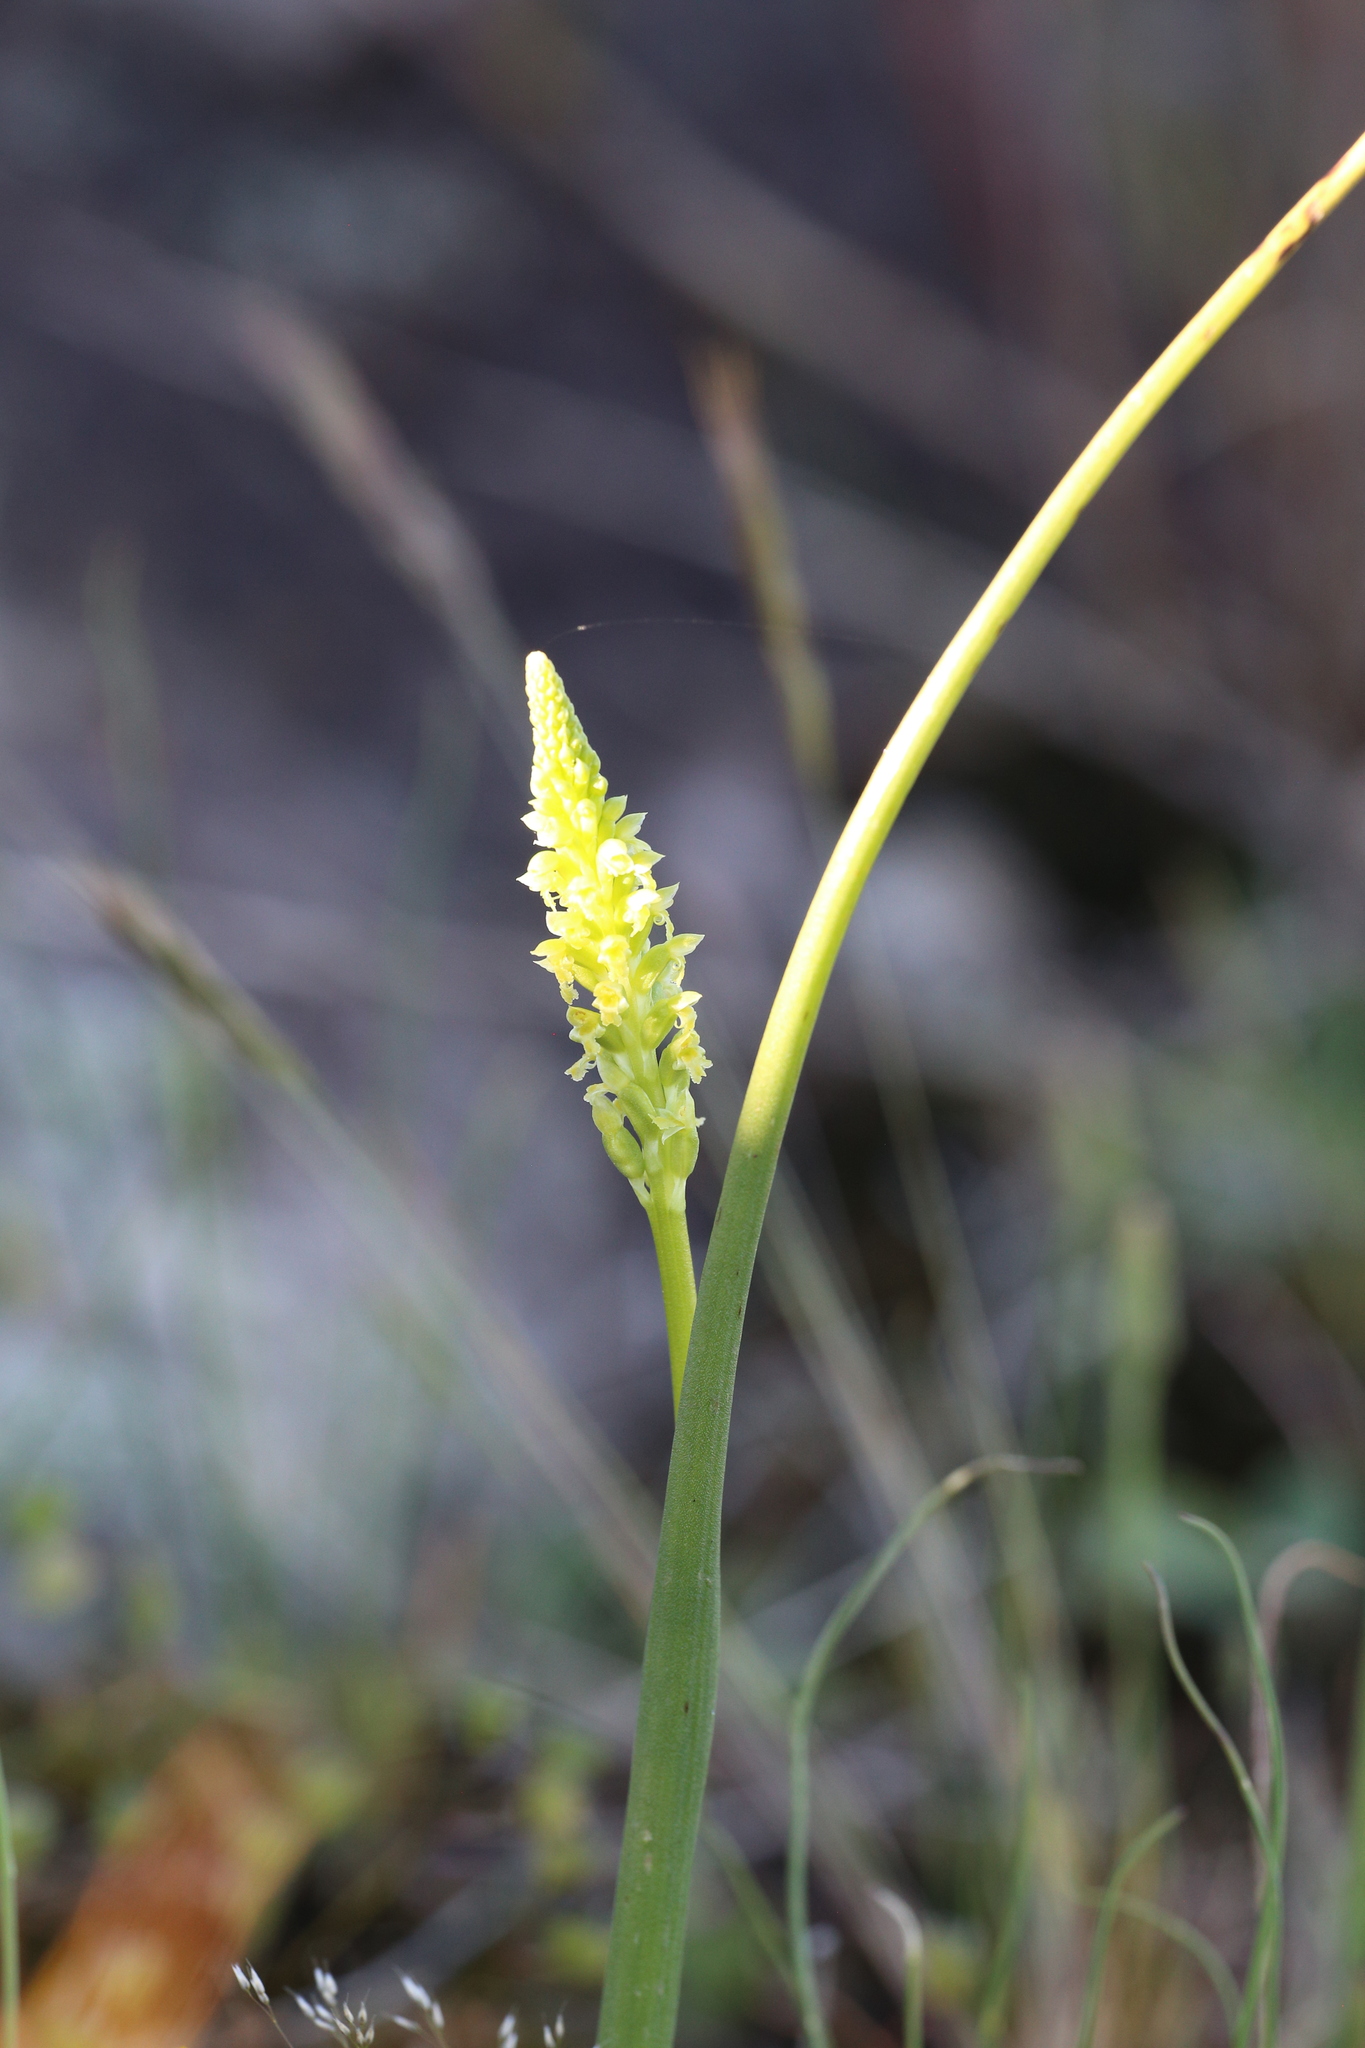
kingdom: Plantae
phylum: Tracheophyta
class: Liliopsida
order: Asparagales
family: Orchidaceae
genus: Microtis
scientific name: Microtis media
